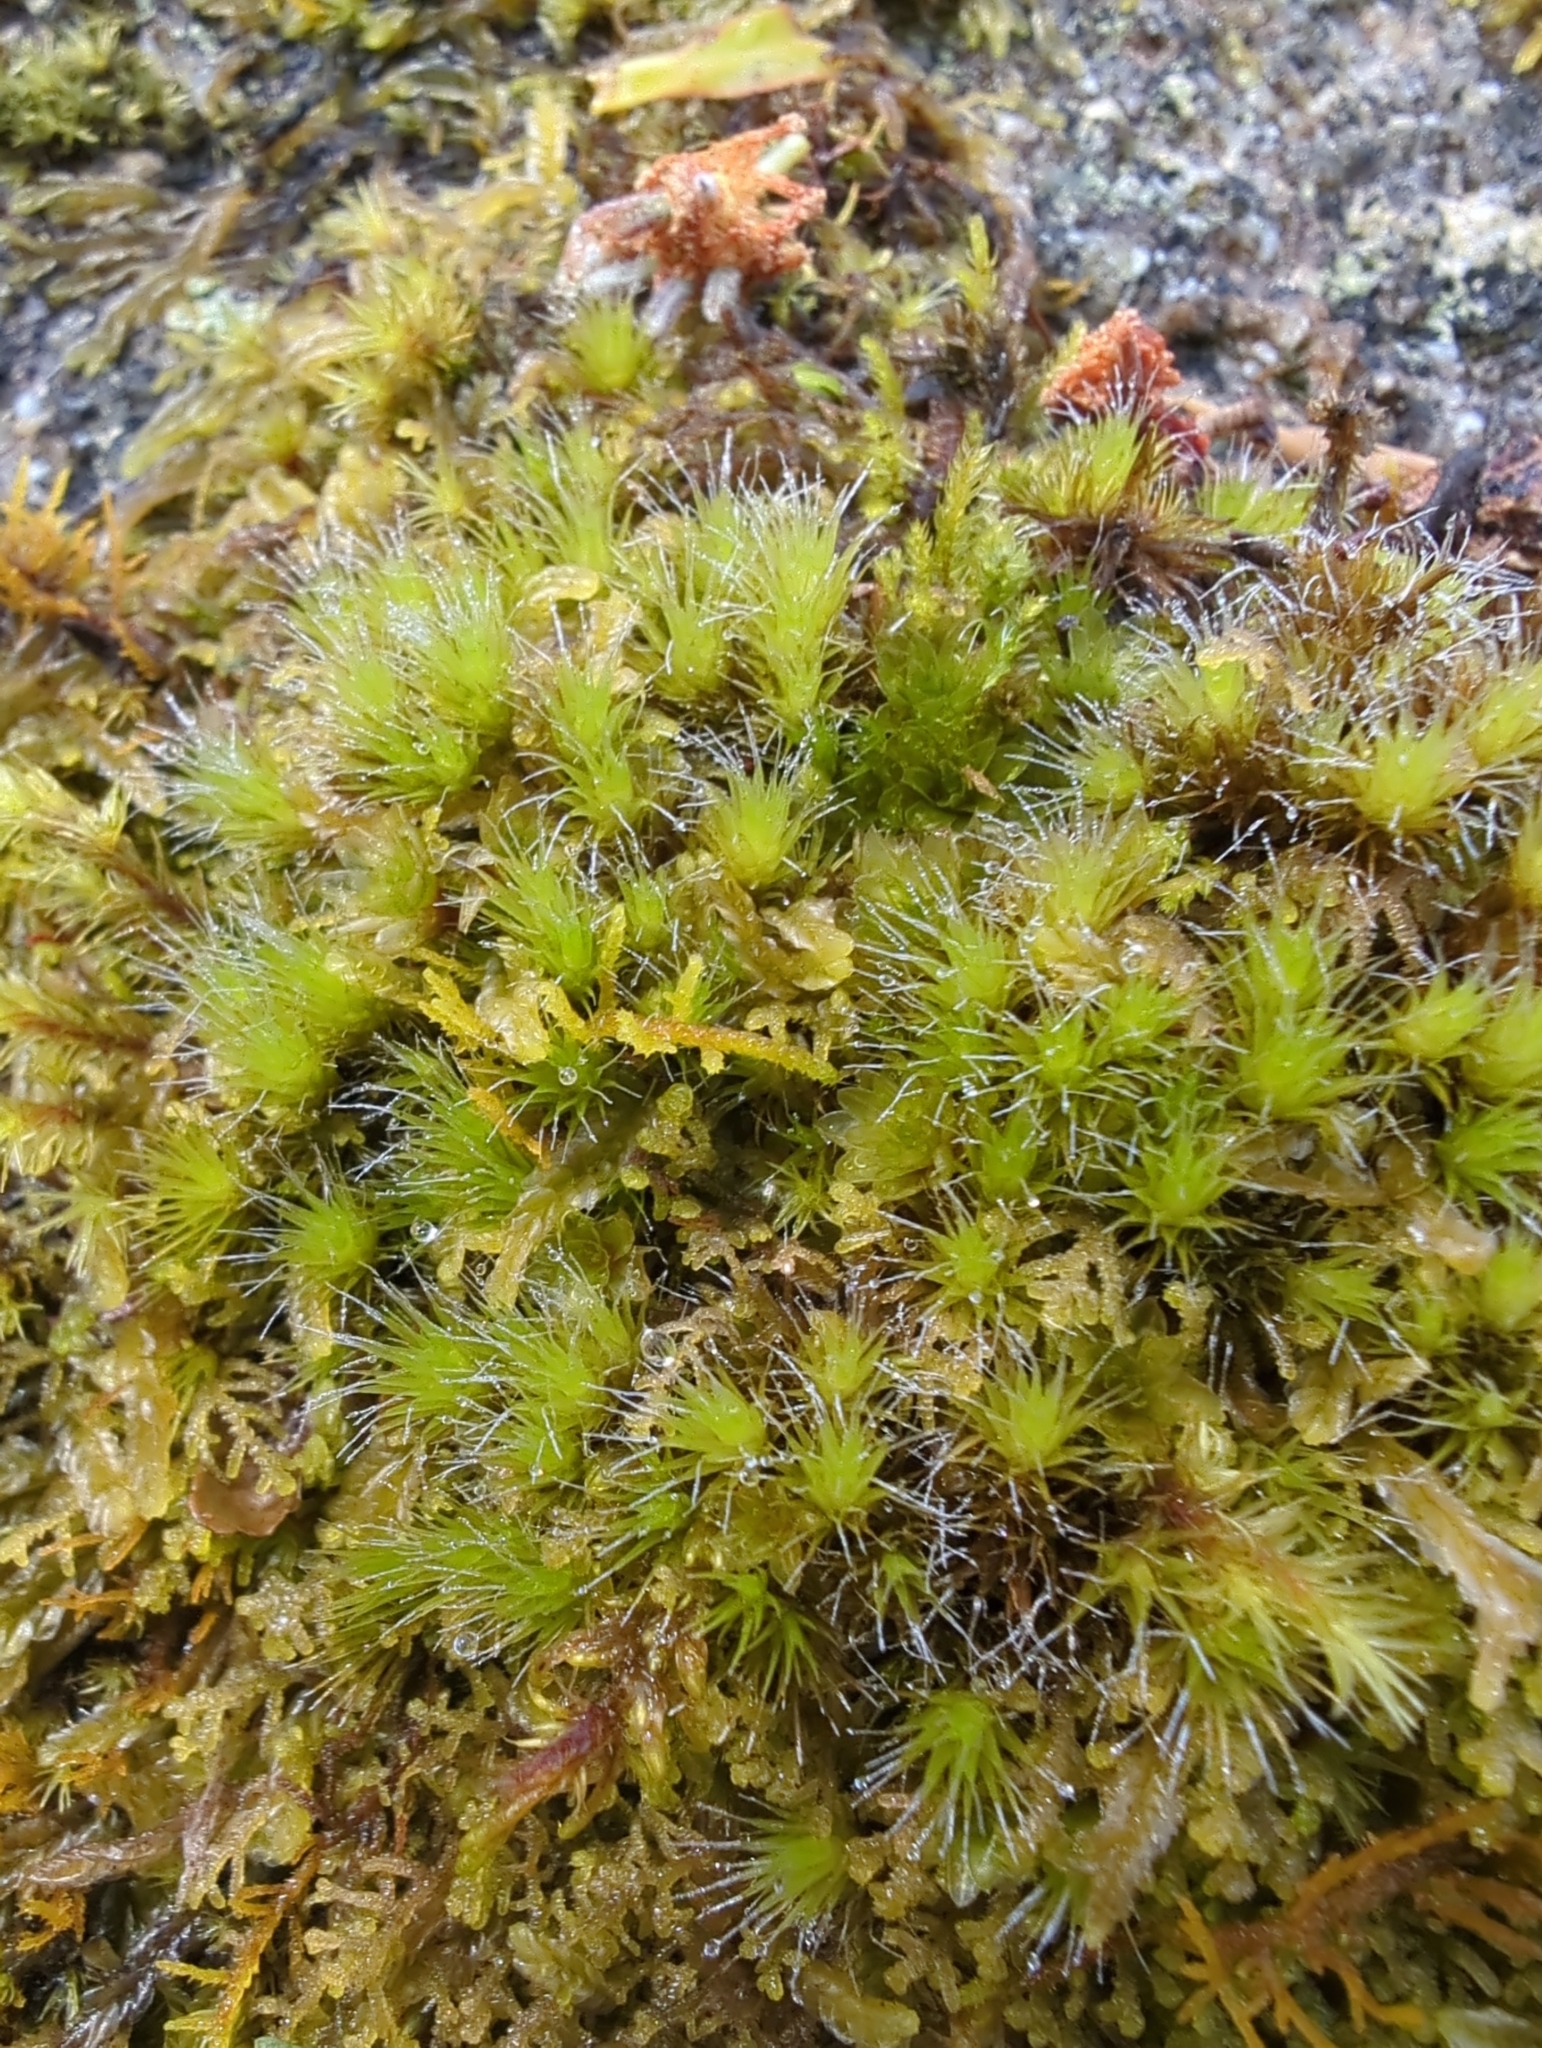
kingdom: Plantae
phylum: Bryophyta
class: Bryopsida
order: Dicranales
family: Leucobryaceae
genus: Campylopus
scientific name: Campylopus introflexus
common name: Heath star moss
